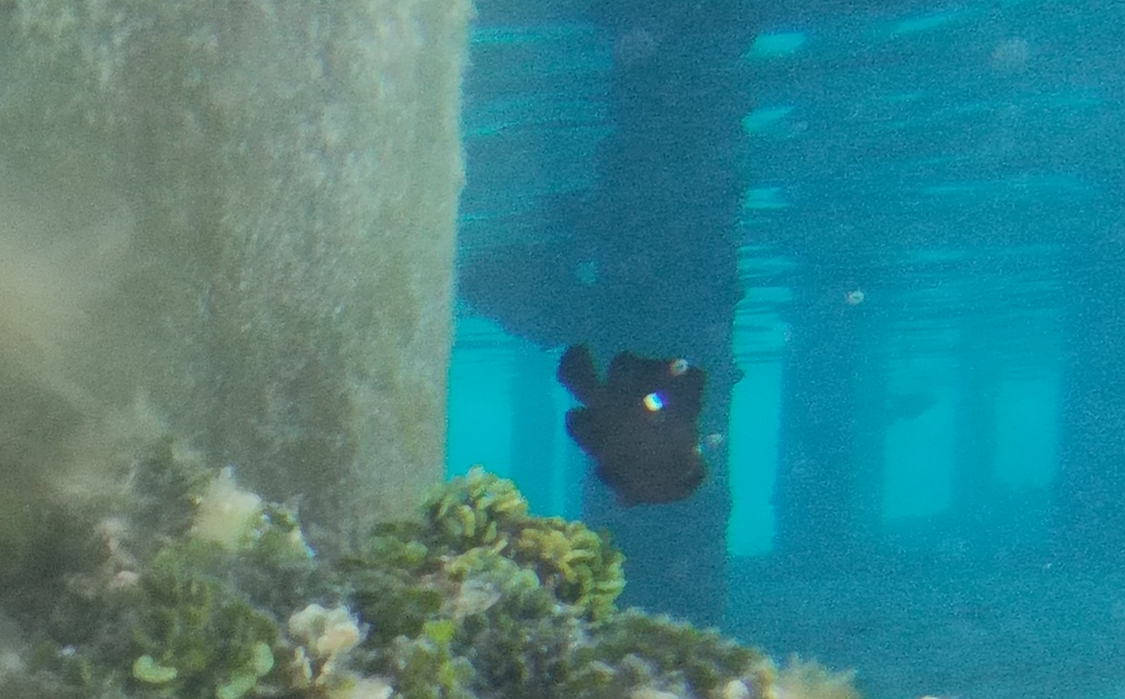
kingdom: Animalia
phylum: Chordata
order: Perciformes
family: Pomacentridae
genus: Dascyllus
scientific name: Dascyllus trimaculatus
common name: Threespot dascyllus
